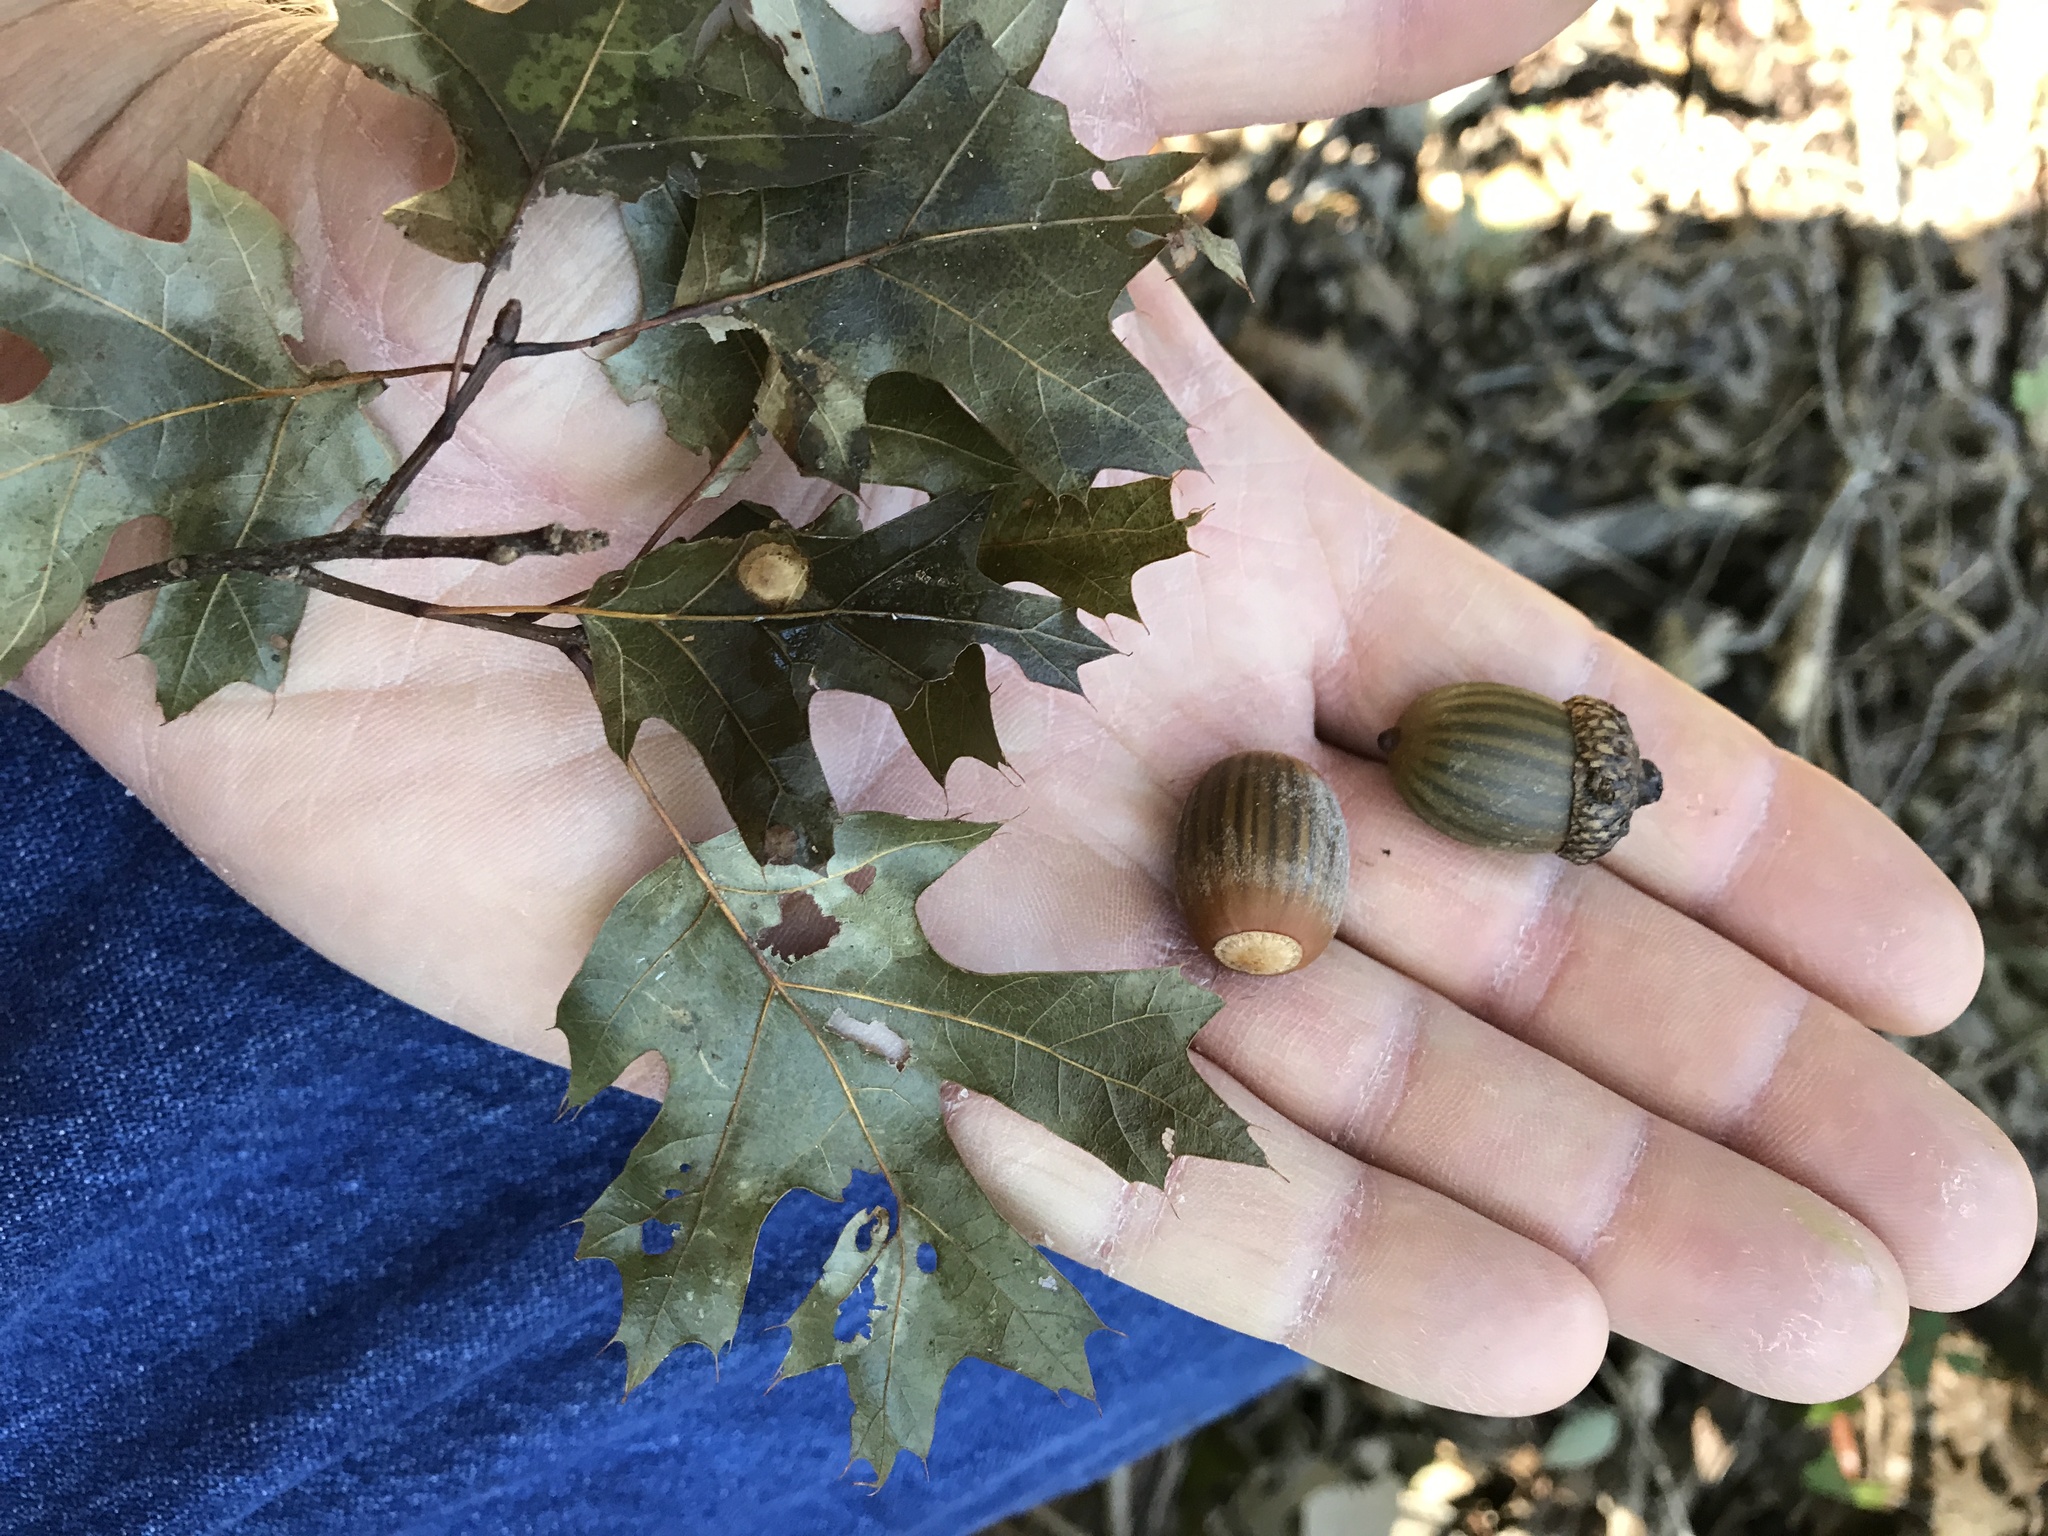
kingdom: Plantae
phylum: Tracheophyta
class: Magnoliopsida
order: Fagales
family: Fagaceae
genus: Quercus
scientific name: Quercus buckleyi
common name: Buckley oak
